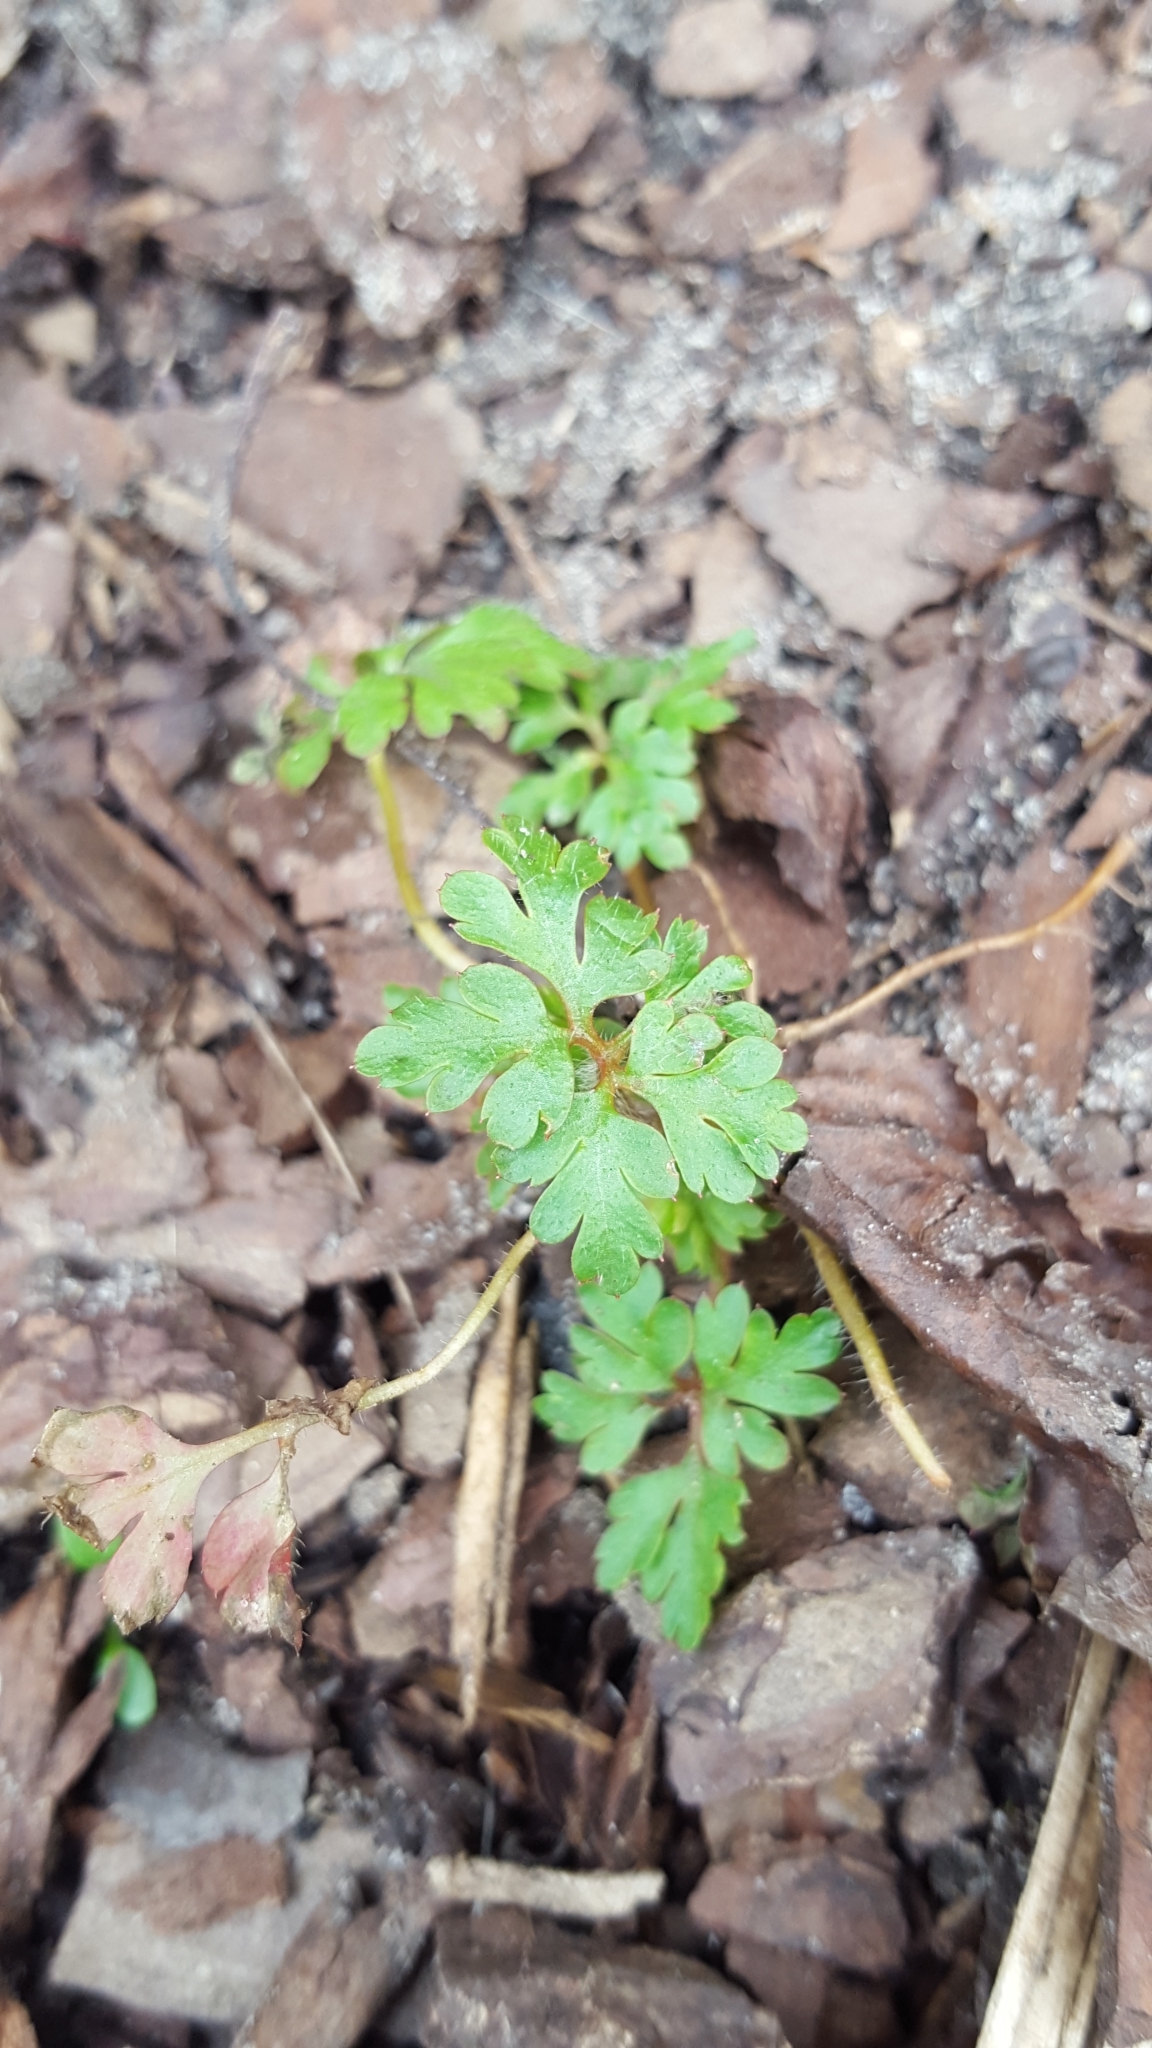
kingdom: Plantae
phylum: Tracheophyta
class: Magnoliopsida
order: Geraniales
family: Geraniaceae
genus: Geranium
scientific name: Geranium robertianum
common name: Herb-robert
